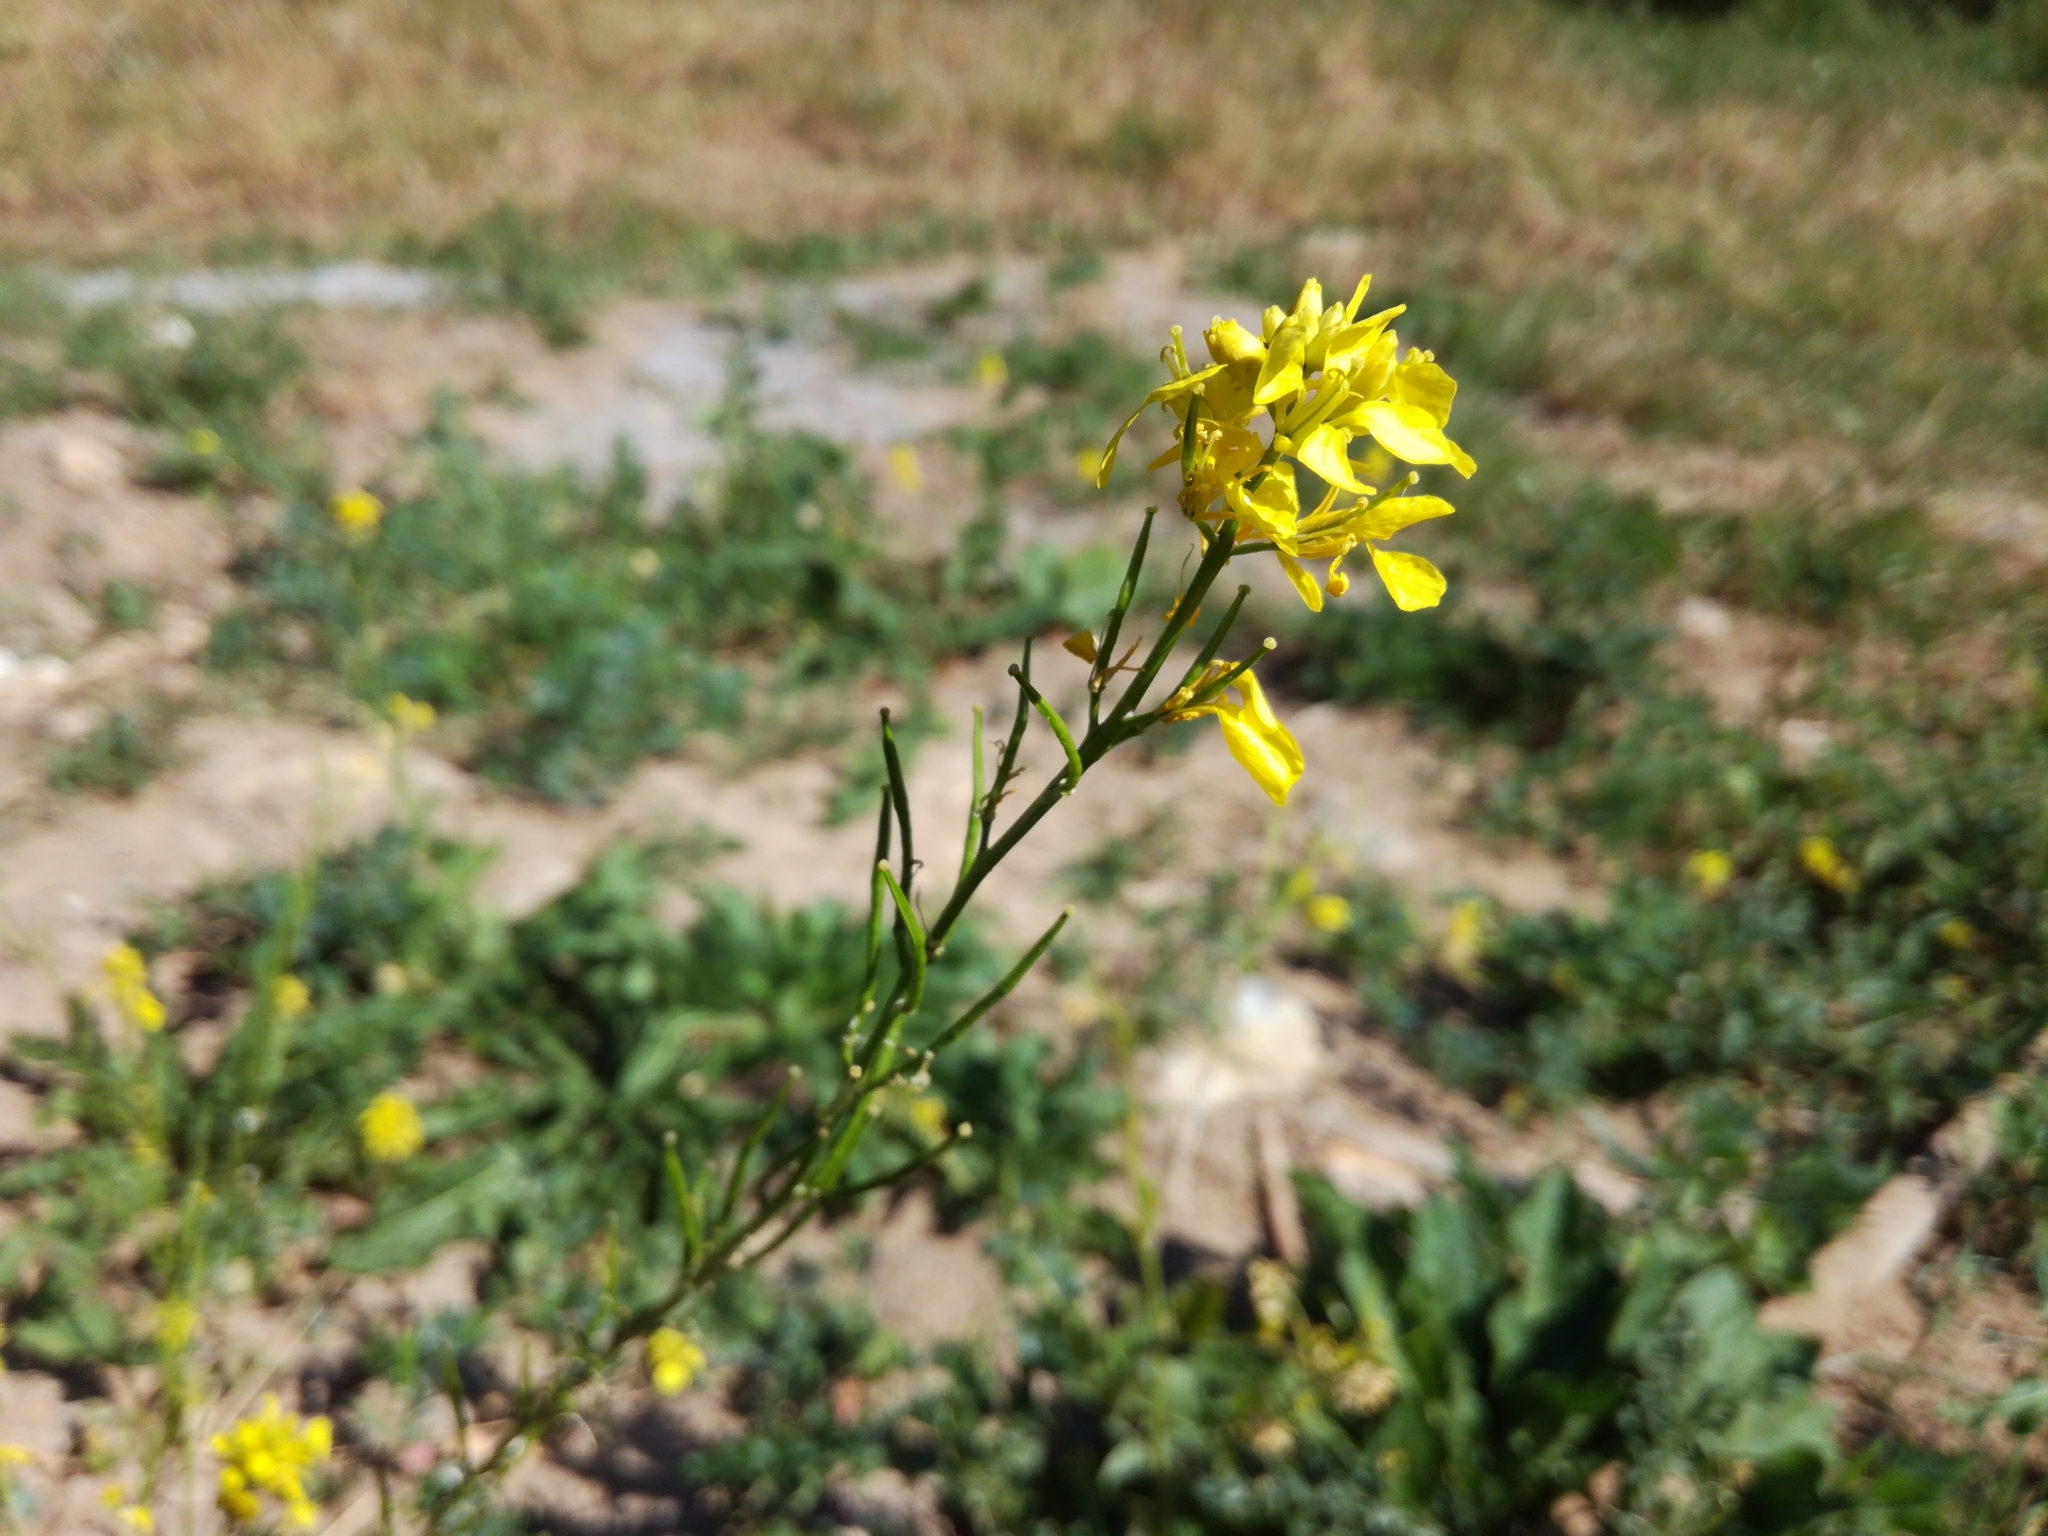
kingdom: Plantae
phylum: Tracheophyta
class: Magnoliopsida
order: Brassicales
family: Brassicaceae
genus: Sinapis
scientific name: Sinapis arvensis
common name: Charlock
